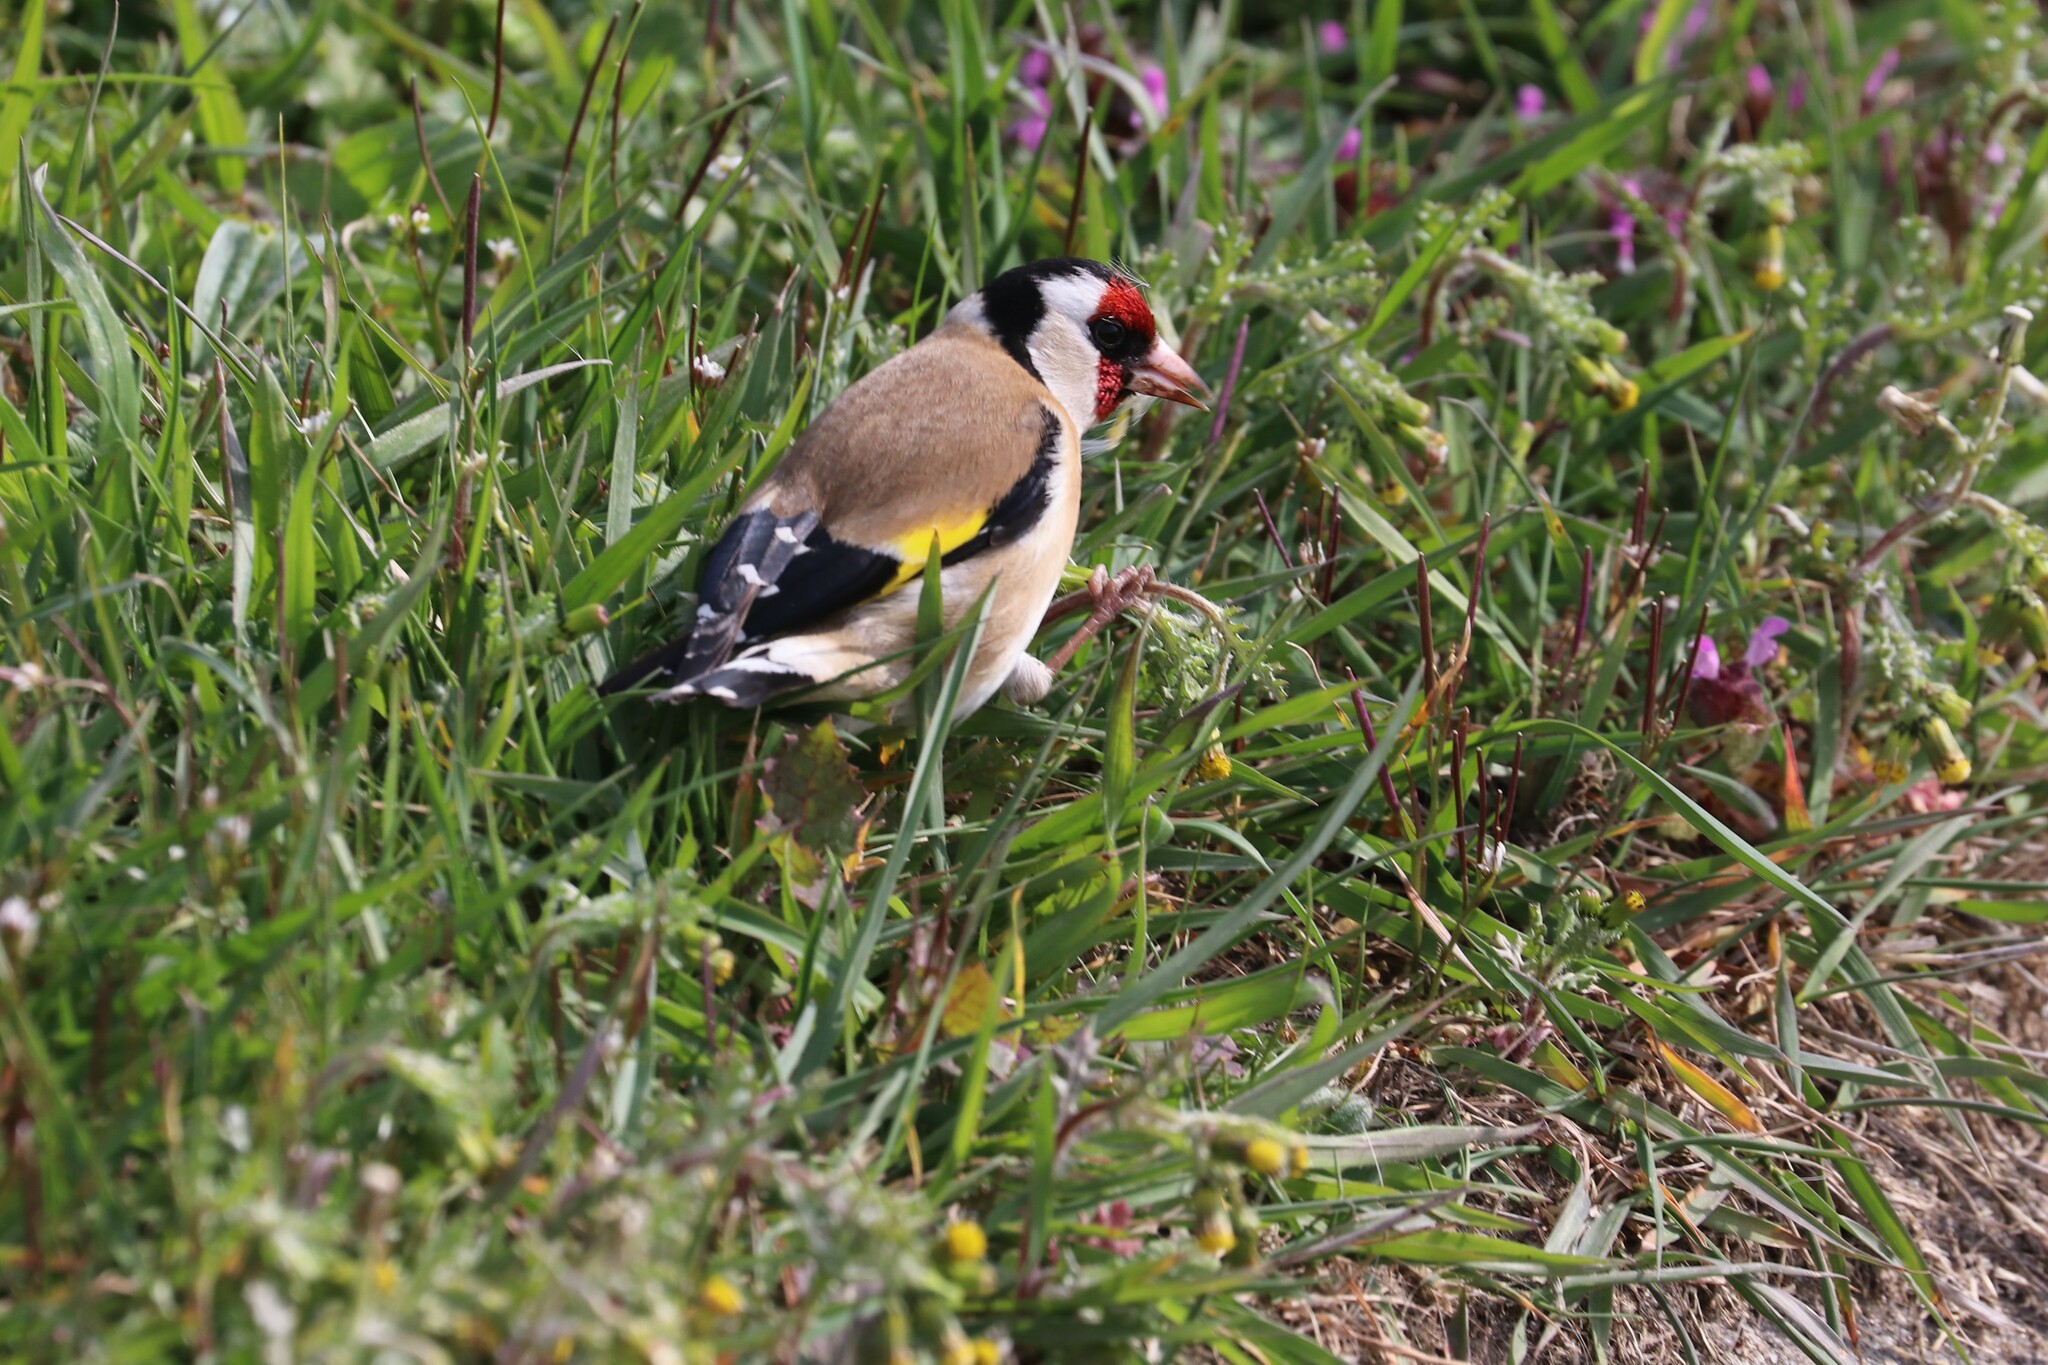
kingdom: Animalia
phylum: Chordata
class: Aves
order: Passeriformes
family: Fringillidae
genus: Carduelis
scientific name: Carduelis carduelis
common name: European goldfinch
